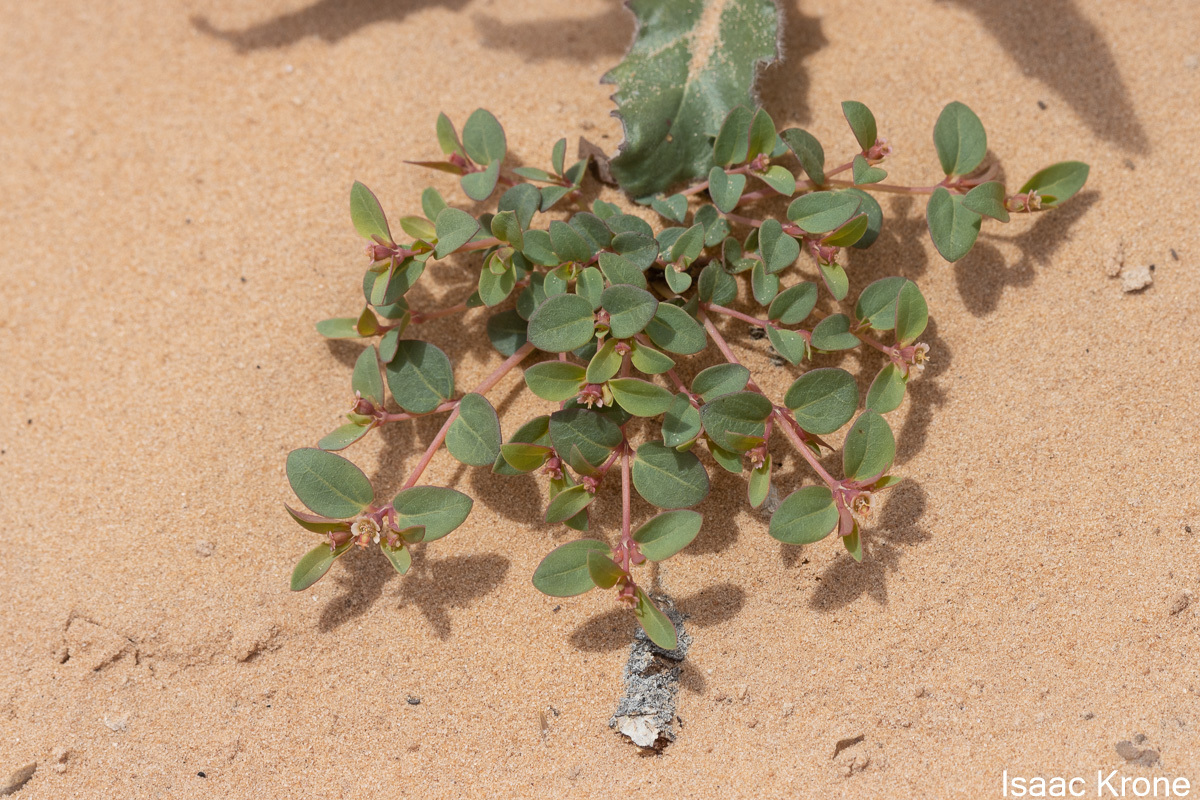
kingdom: Plantae
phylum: Tracheophyta
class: Magnoliopsida
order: Malpighiales
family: Euphorbiaceae
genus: Euphorbia
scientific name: Euphorbia fendleri
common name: Fendler's euphorbia
